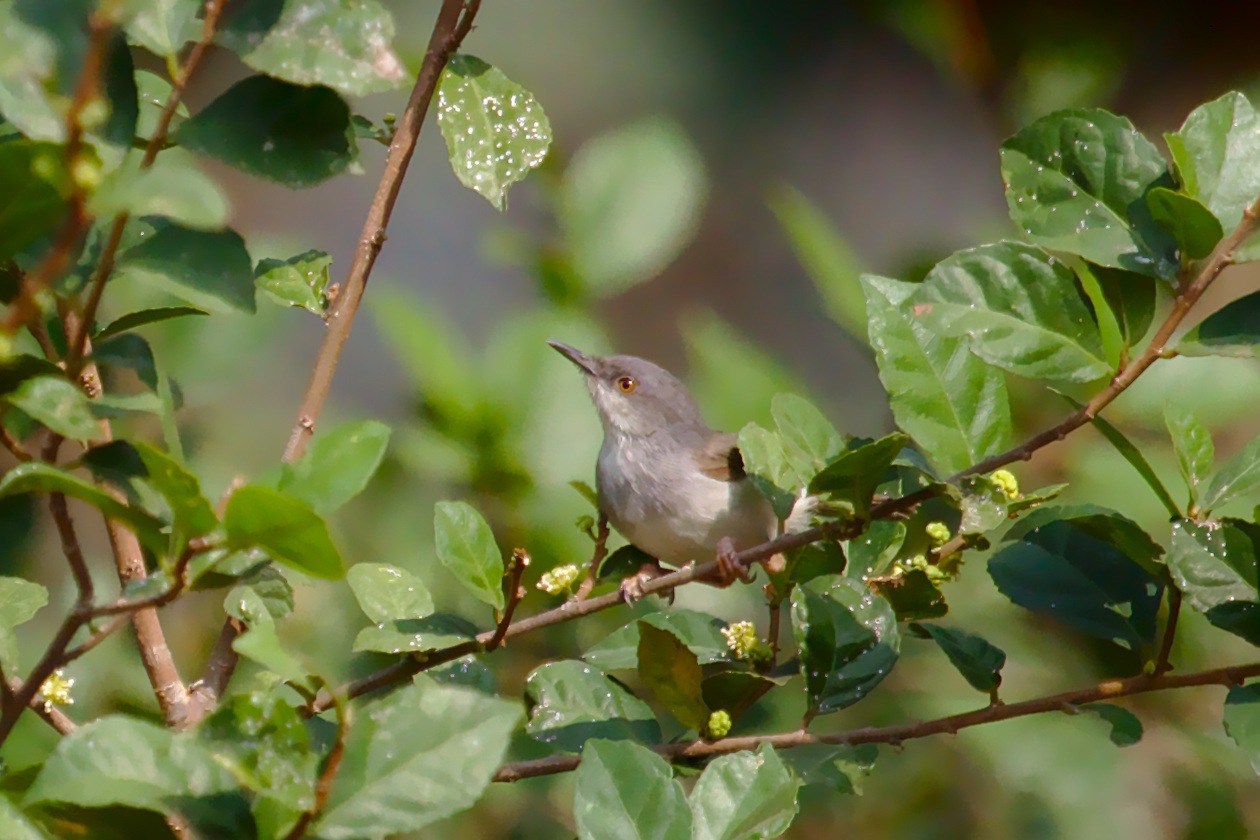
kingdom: Animalia
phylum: Chordata
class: Aves
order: Passeriformes
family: Cisticolidae
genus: Prinia
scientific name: Prinia hodgsonii
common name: Grey-breasted prinia
